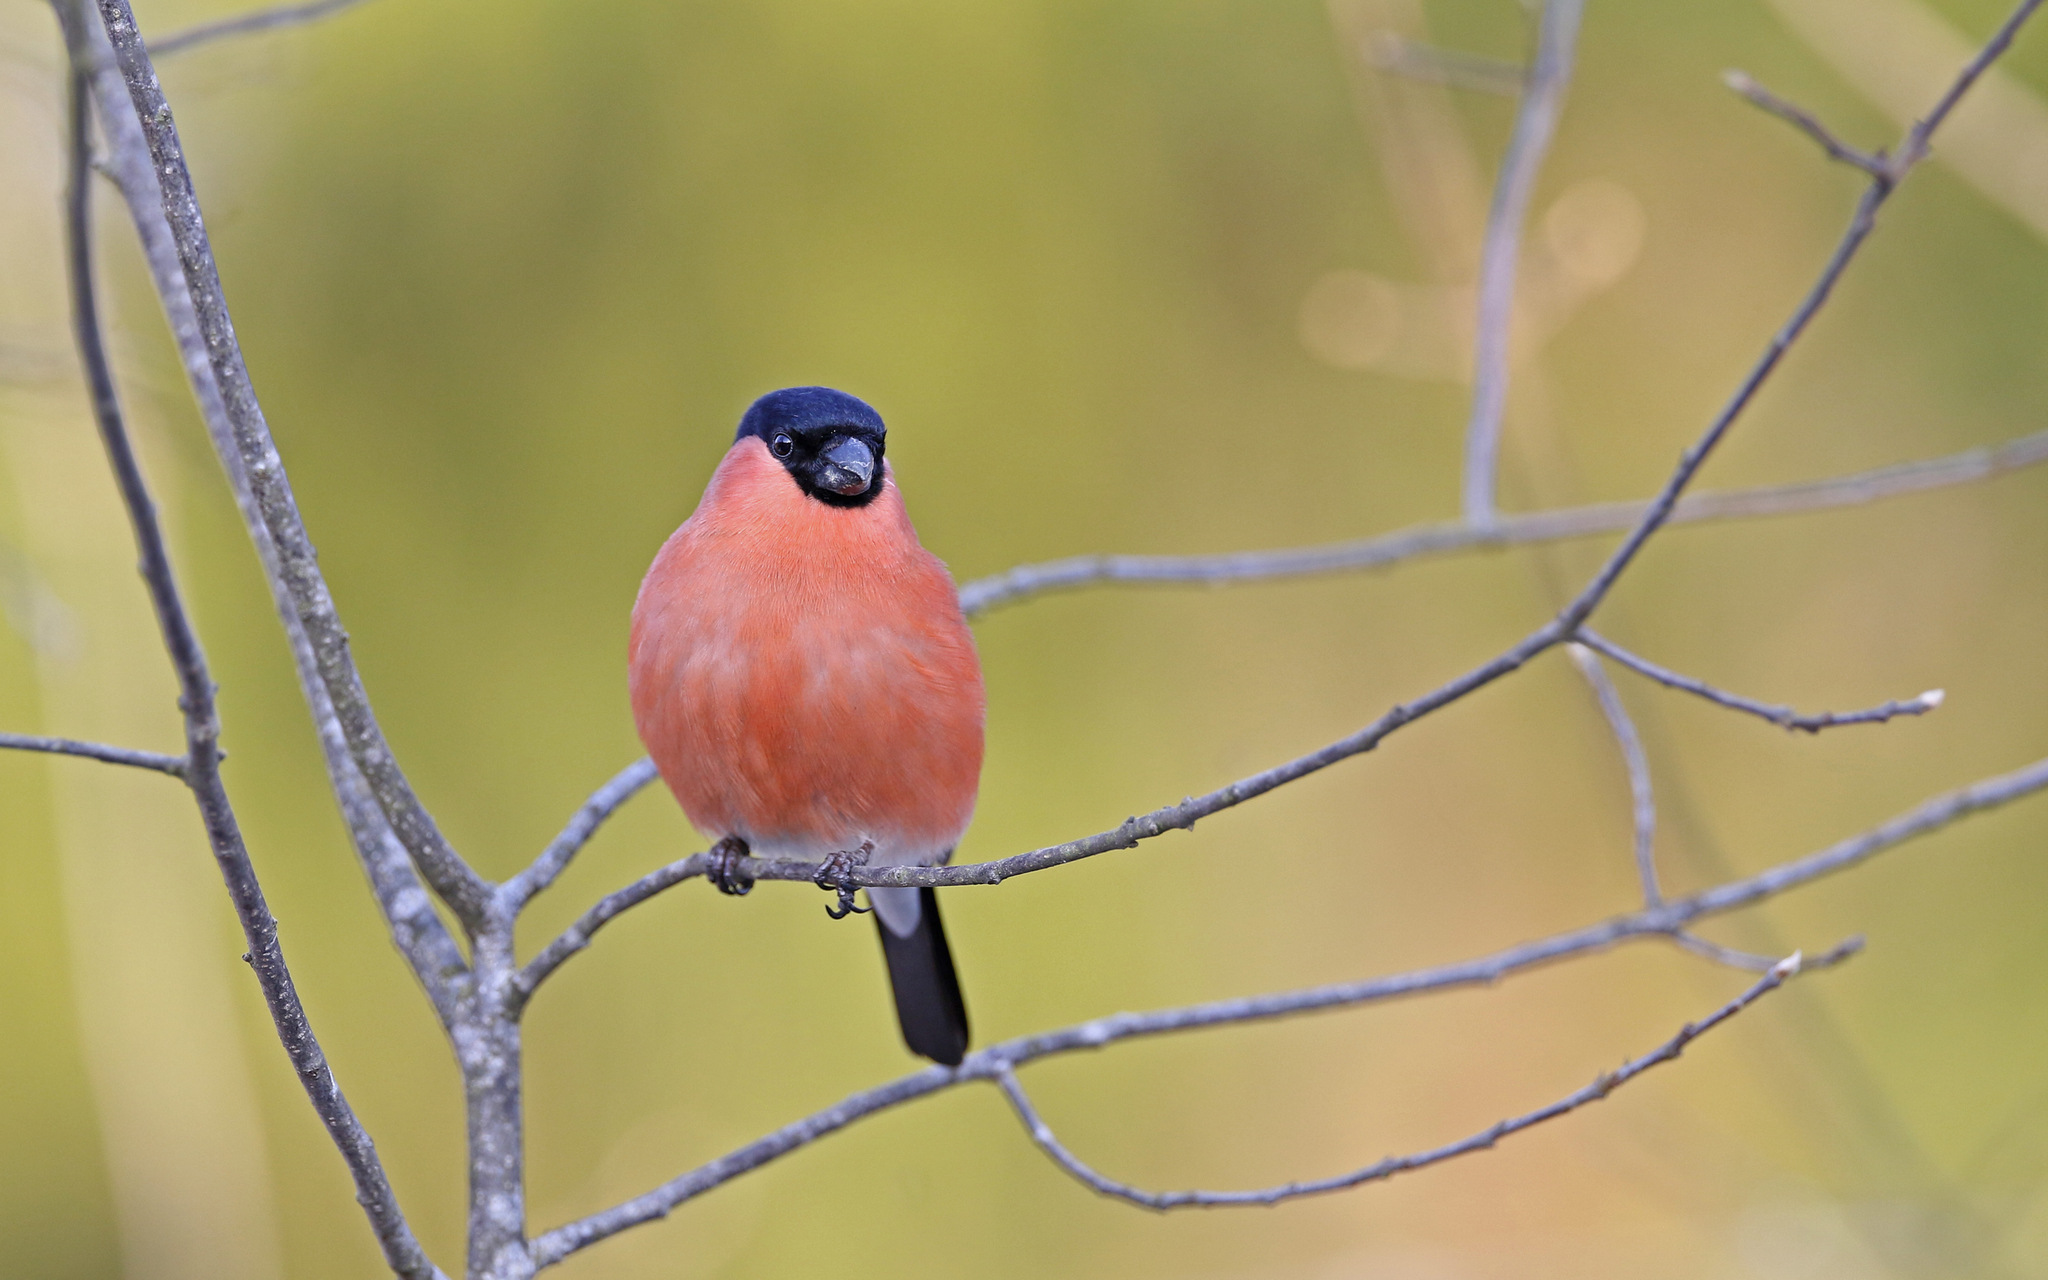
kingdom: Animalia
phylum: Chordata
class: Aves
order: Passeriformes
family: Fringillidae
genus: Pyrrhula
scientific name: Pyrrhula pyrrhula
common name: Eurasian bullfinch
